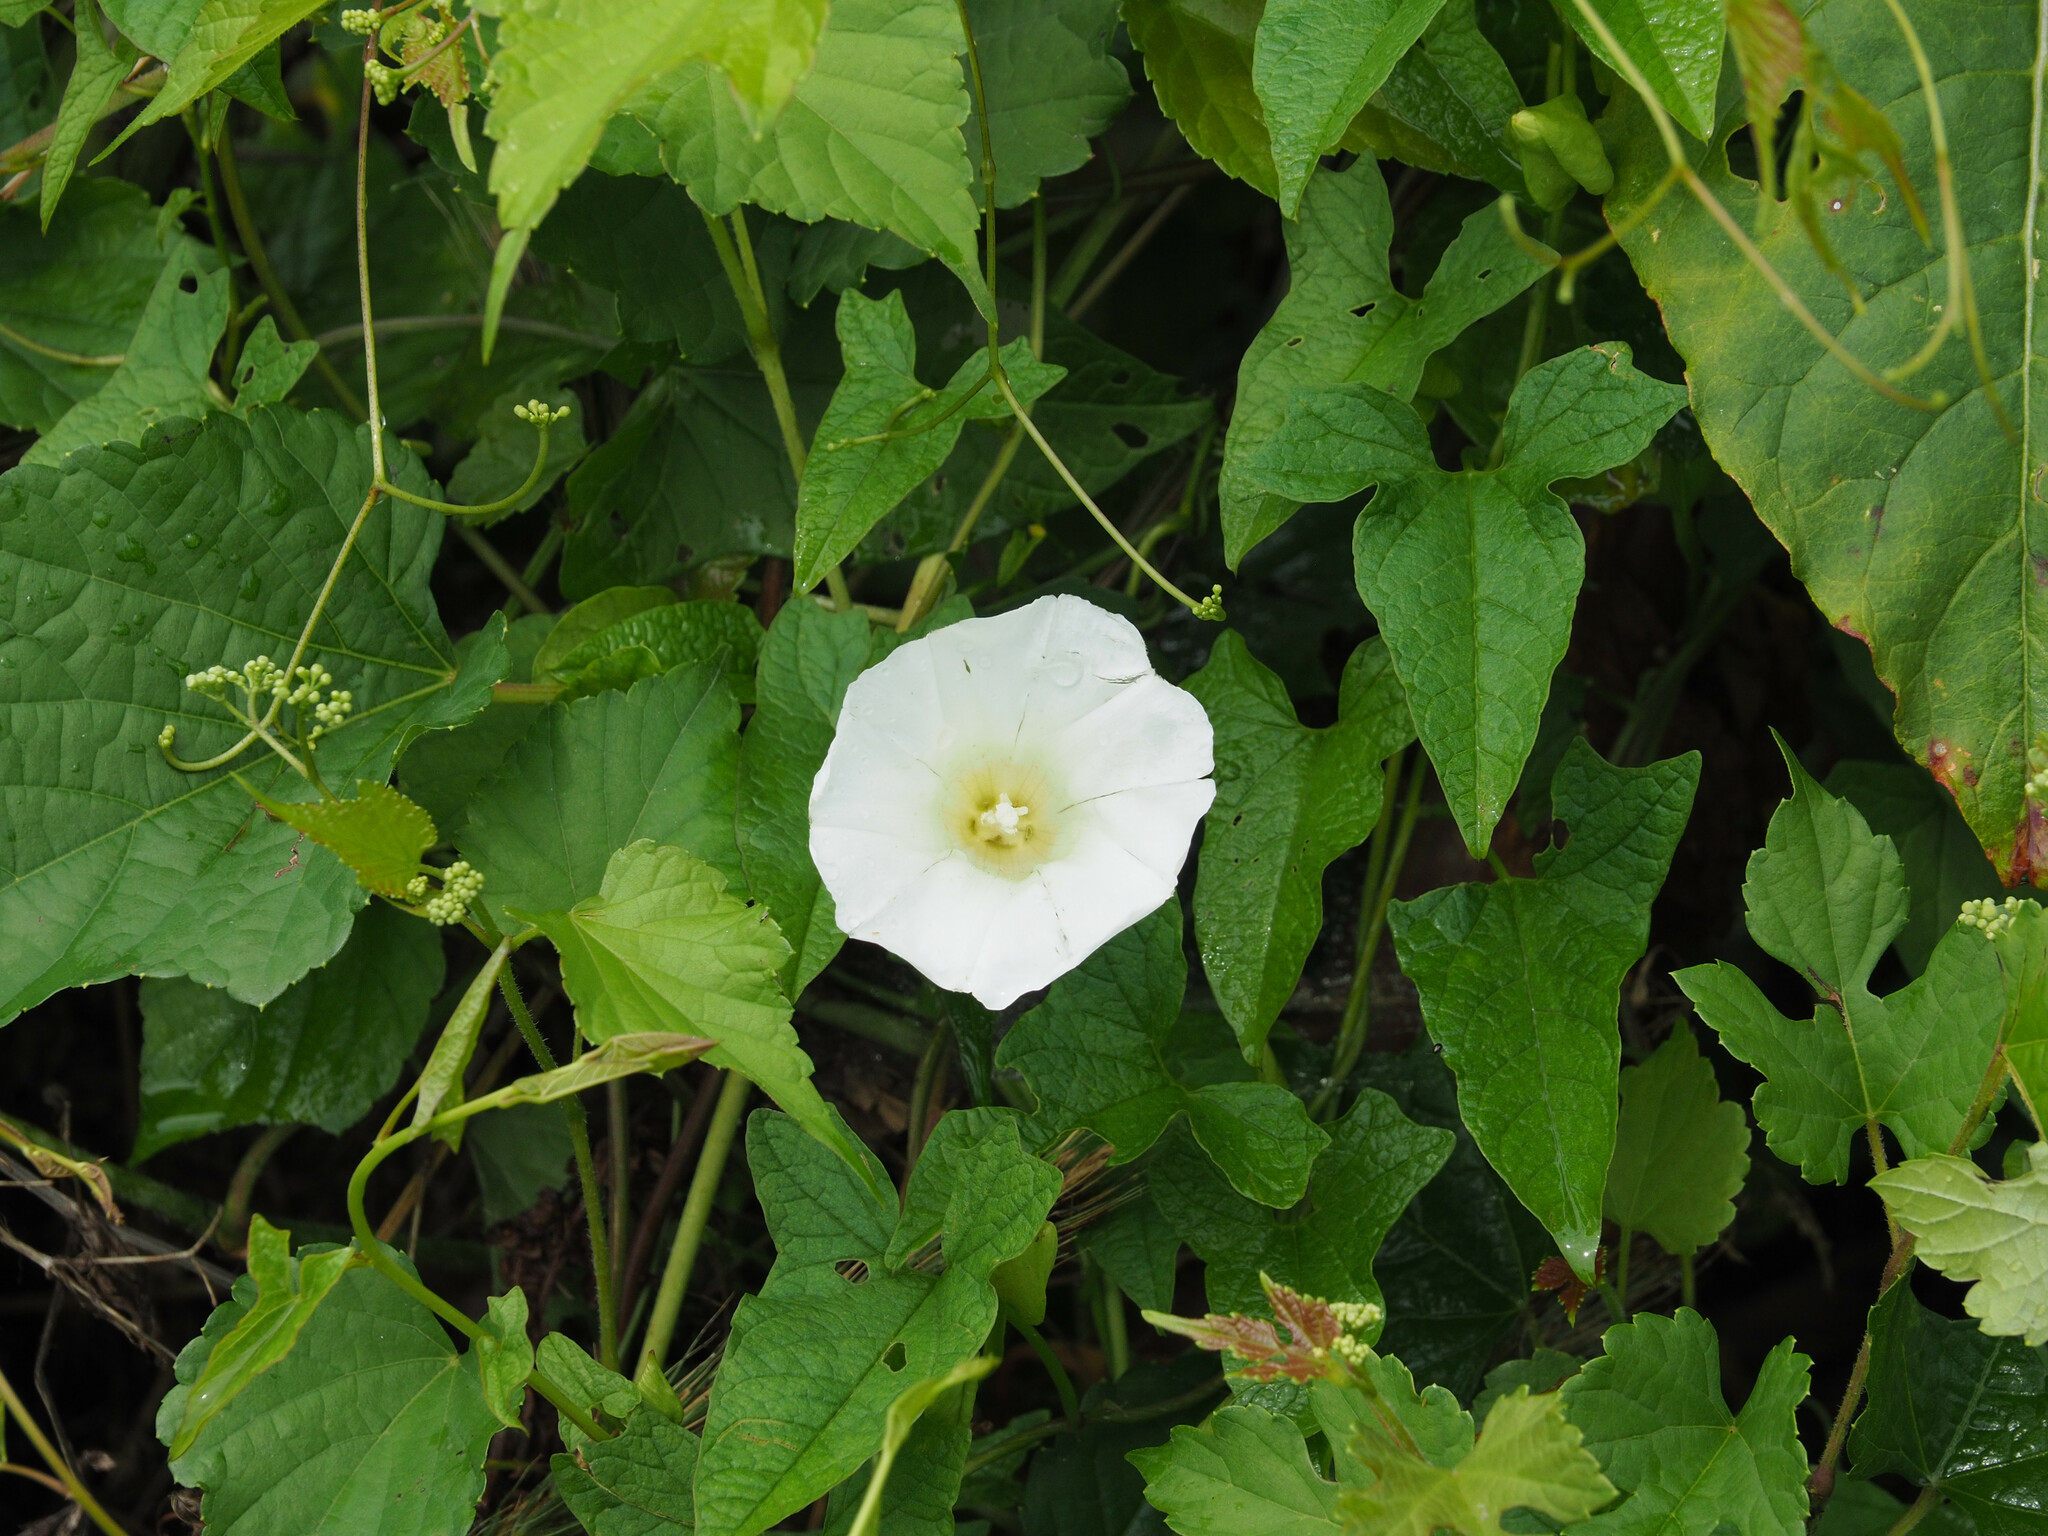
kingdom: Plantae
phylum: Tracheophyta
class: Magnoliopsida
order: Solanales
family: Convolvulaceae
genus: Calystegia
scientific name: Calystegia sepium
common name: Hedge bindweed
